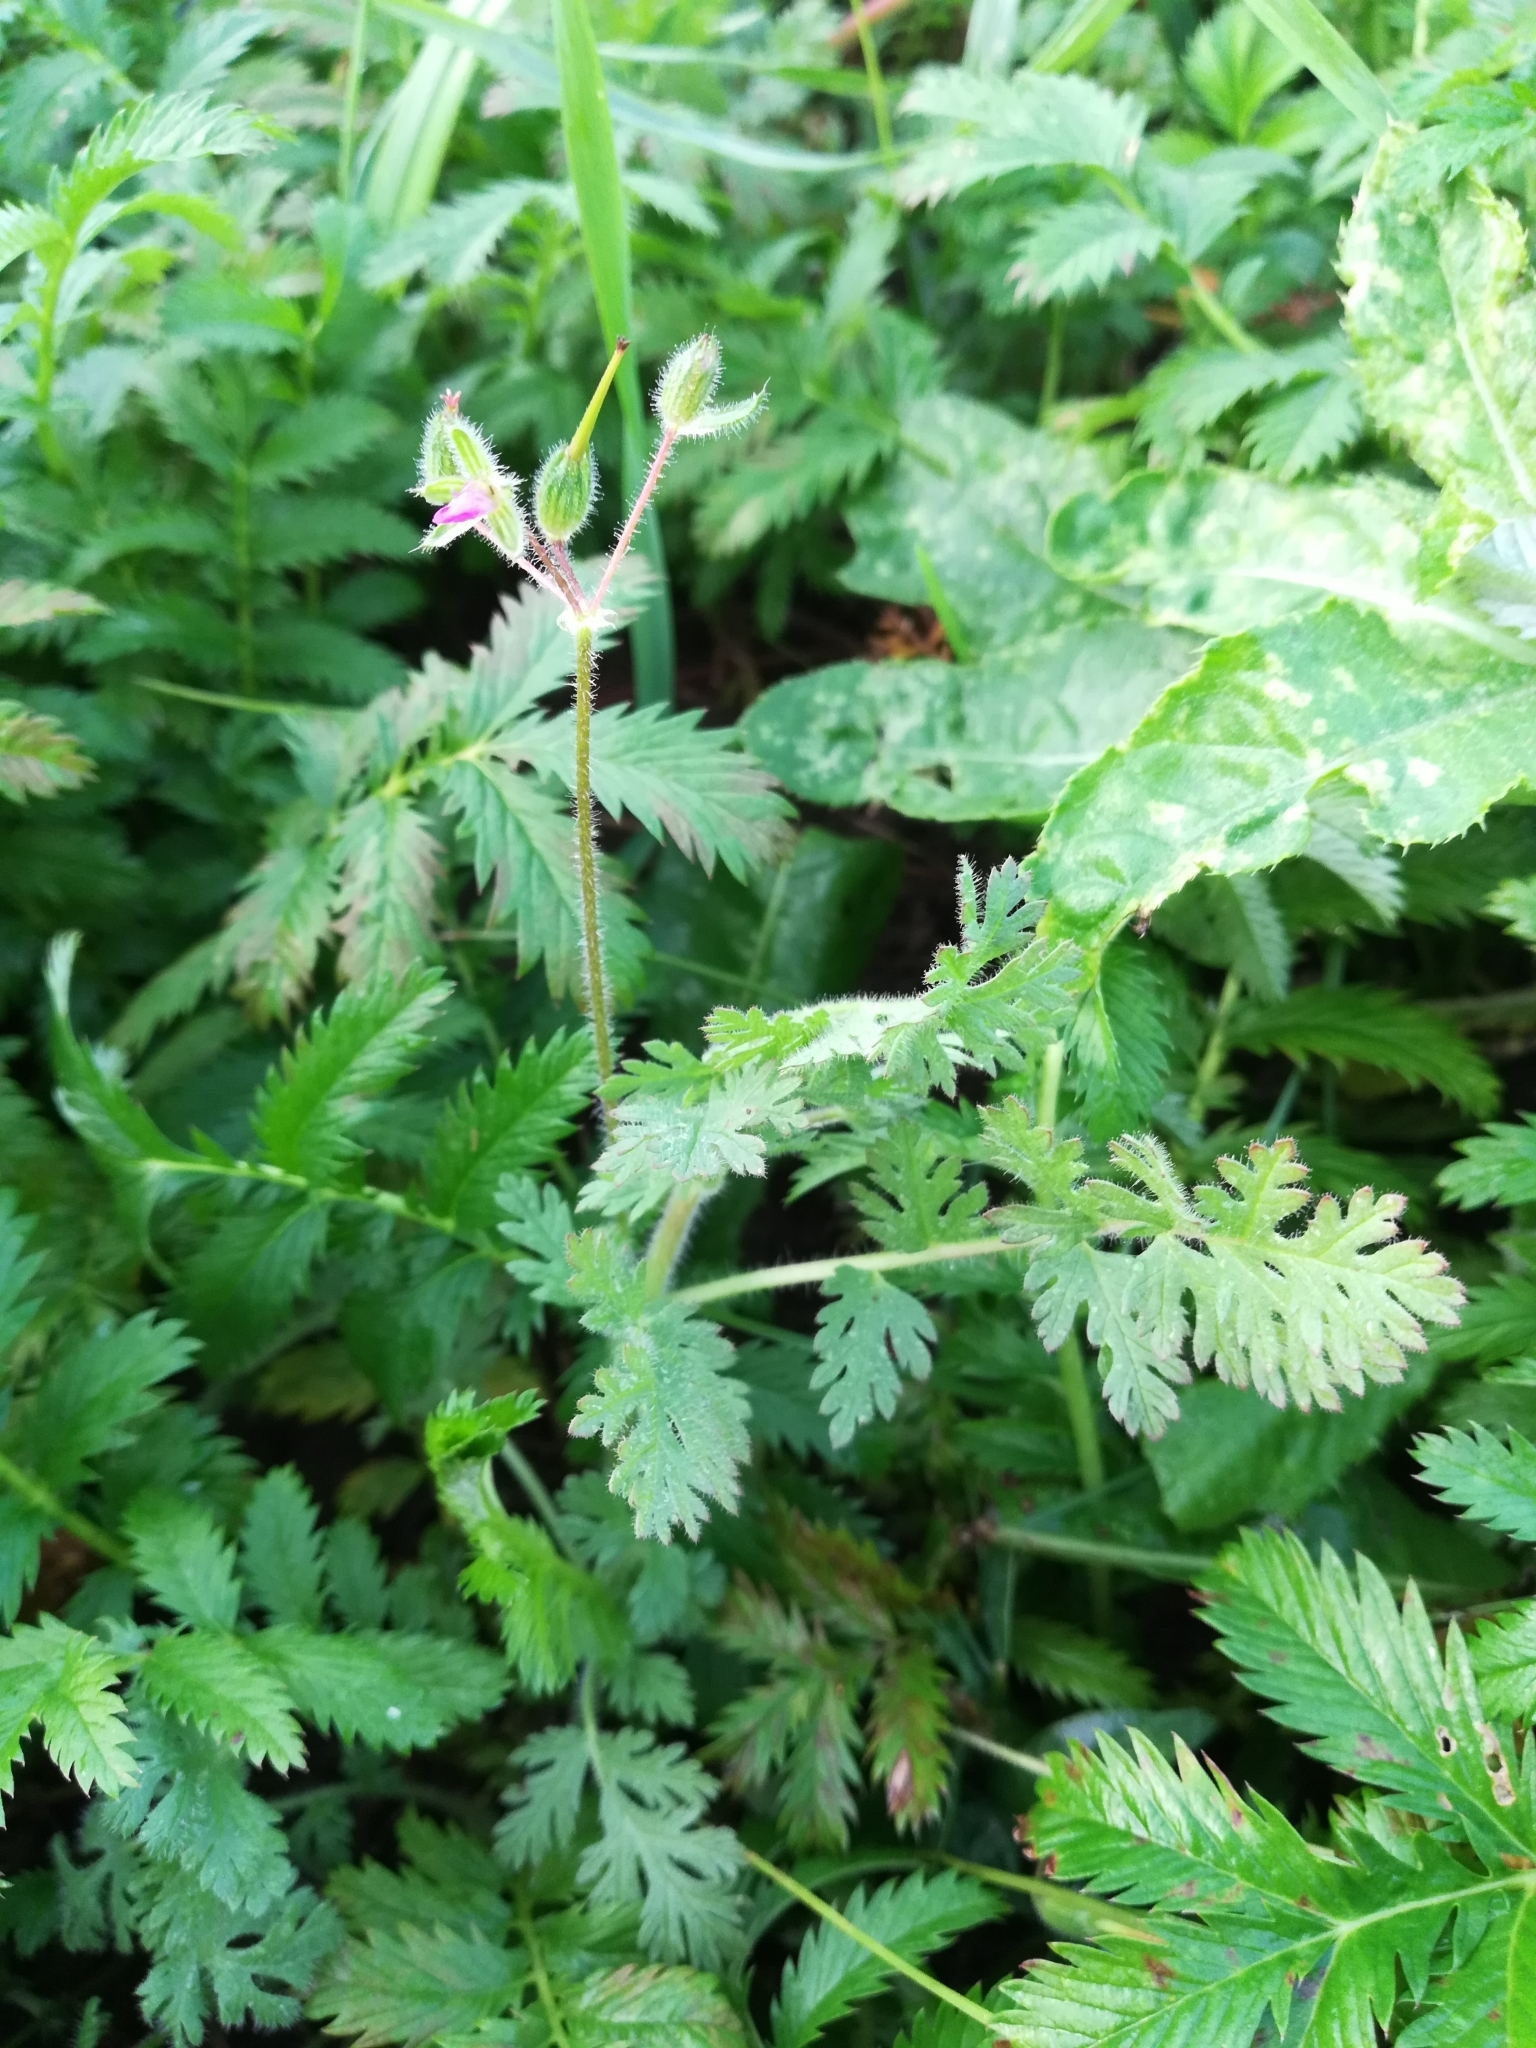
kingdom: Plantae
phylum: Tracheophyta
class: Magnoliopsida
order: Geraniales
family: Geraniaceae
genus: Erodium
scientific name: Erodium cicutarium
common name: Common stork's-bill
